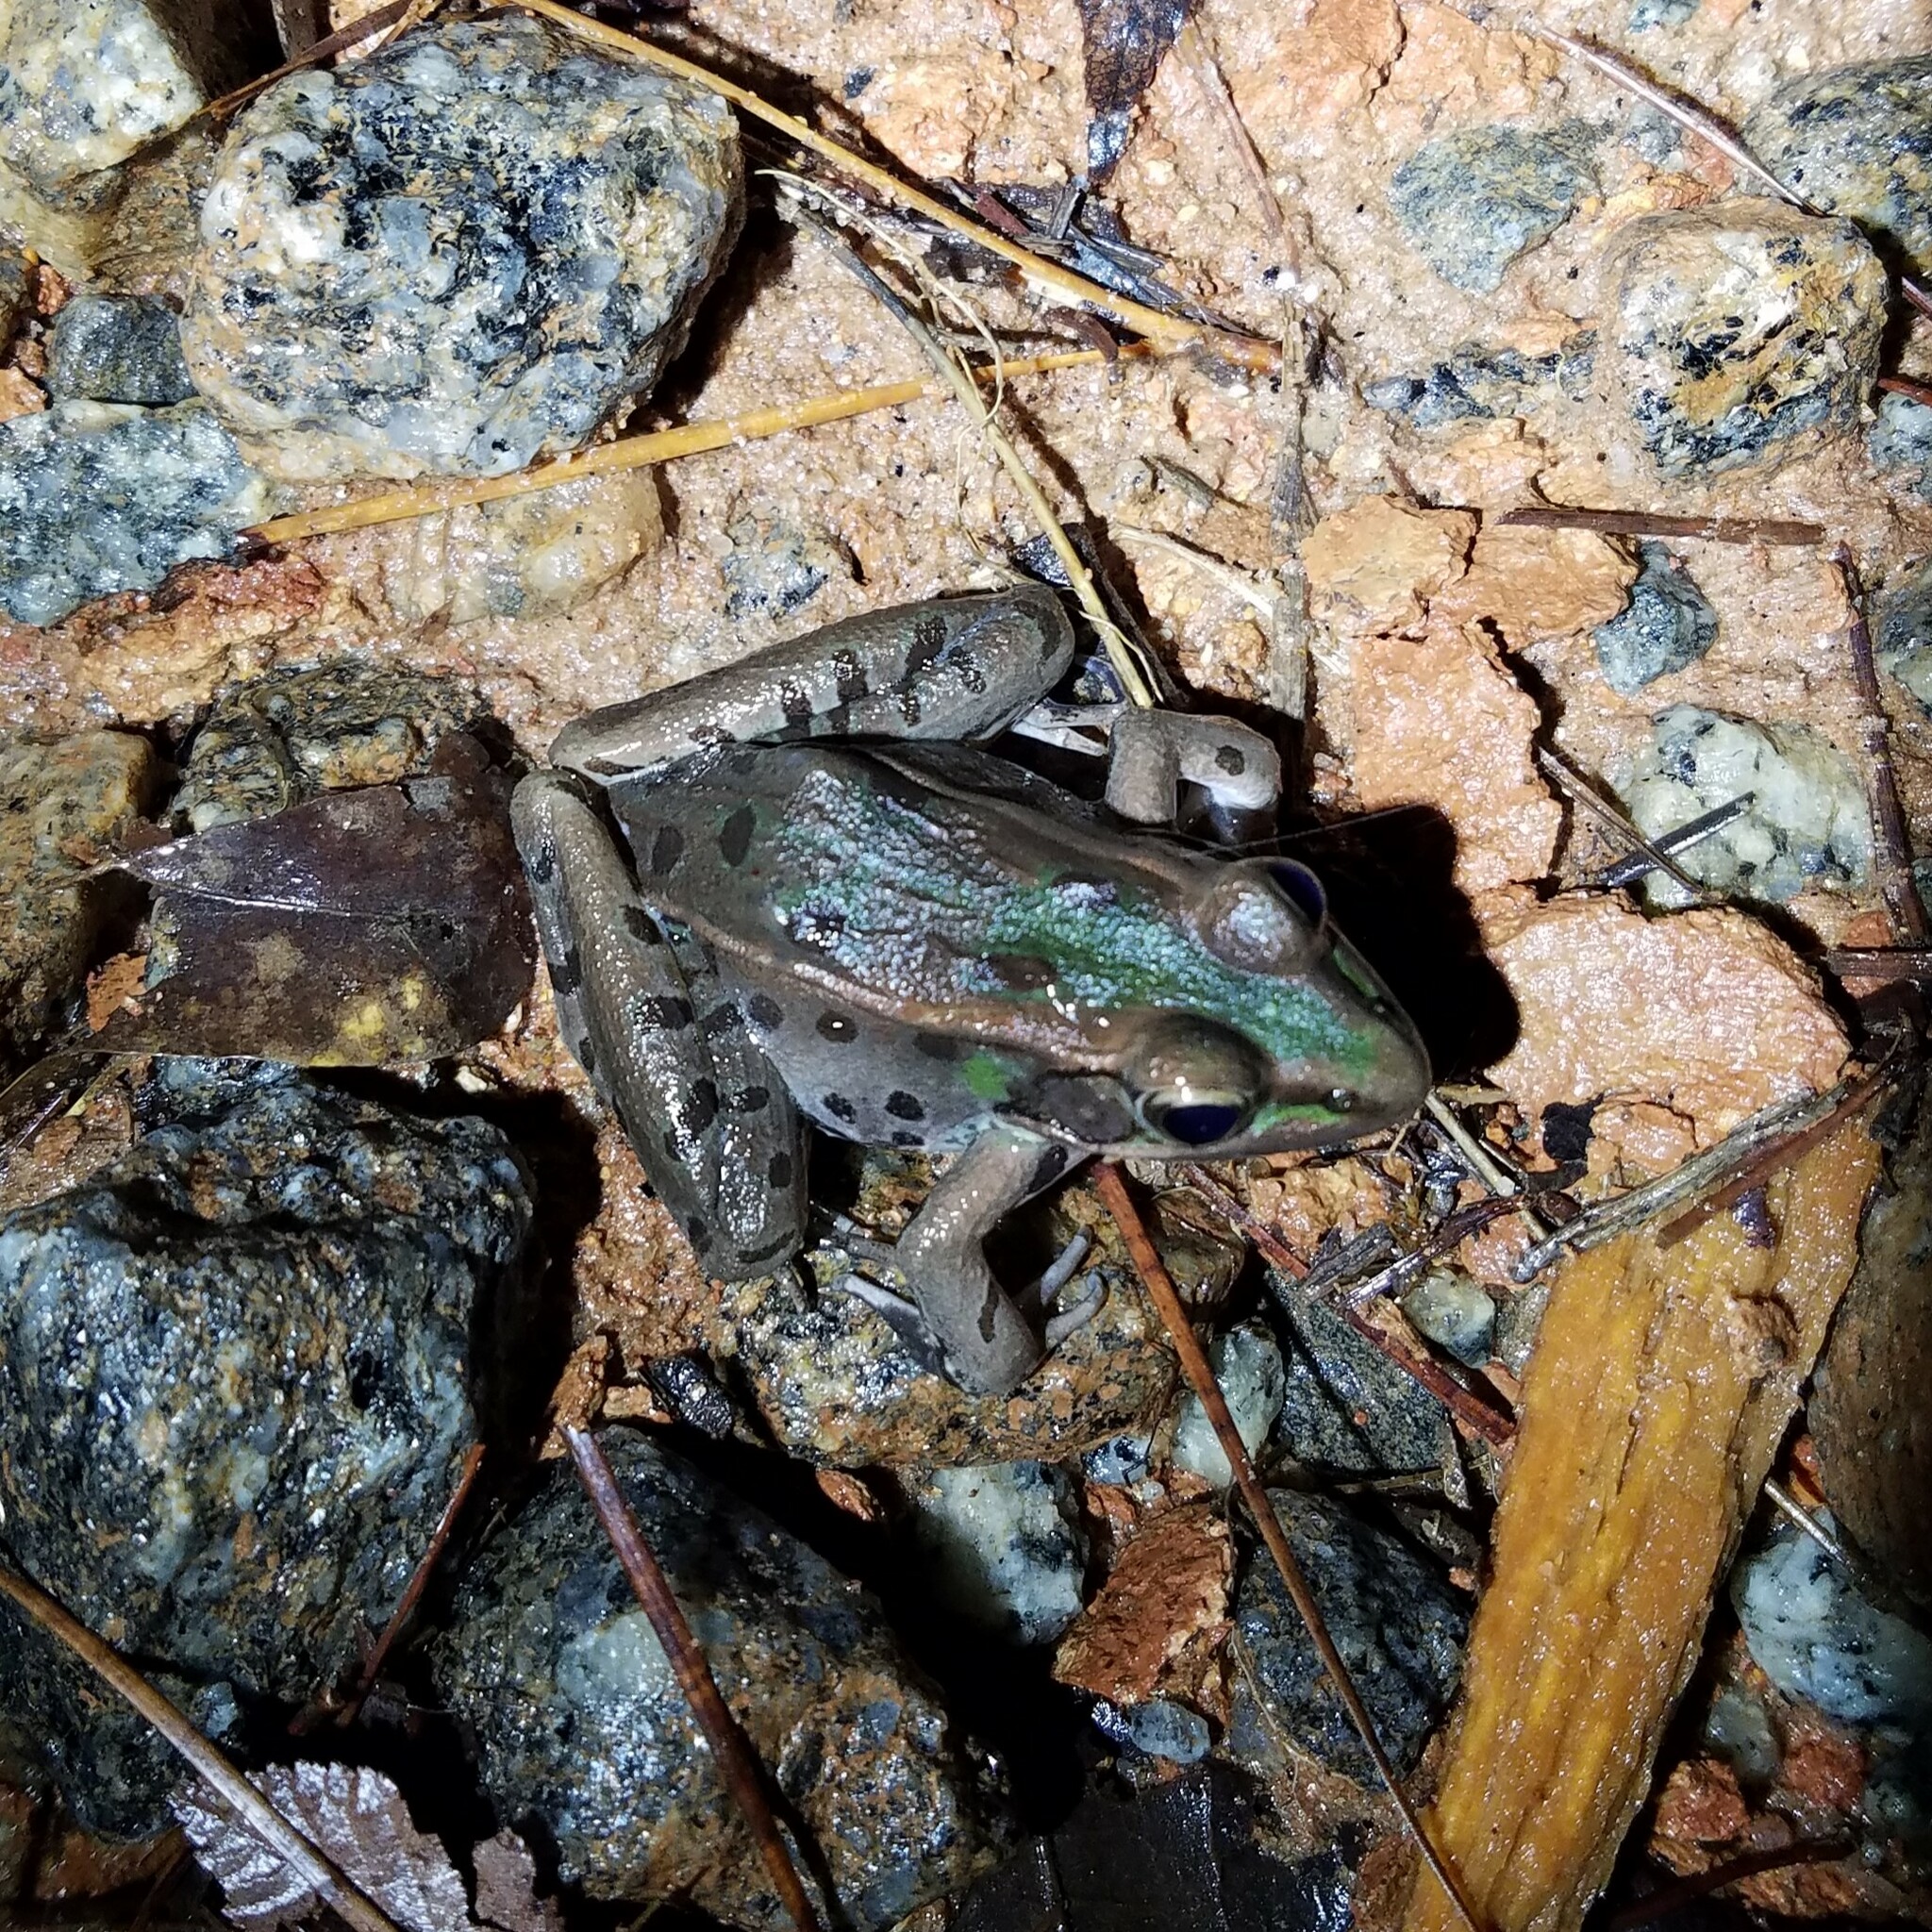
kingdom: Animalia
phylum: Chordata
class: Amphibia
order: Anura
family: Ranidae
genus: Lithobates
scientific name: Lithobates sphenocephalus
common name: Southern leopard frog
